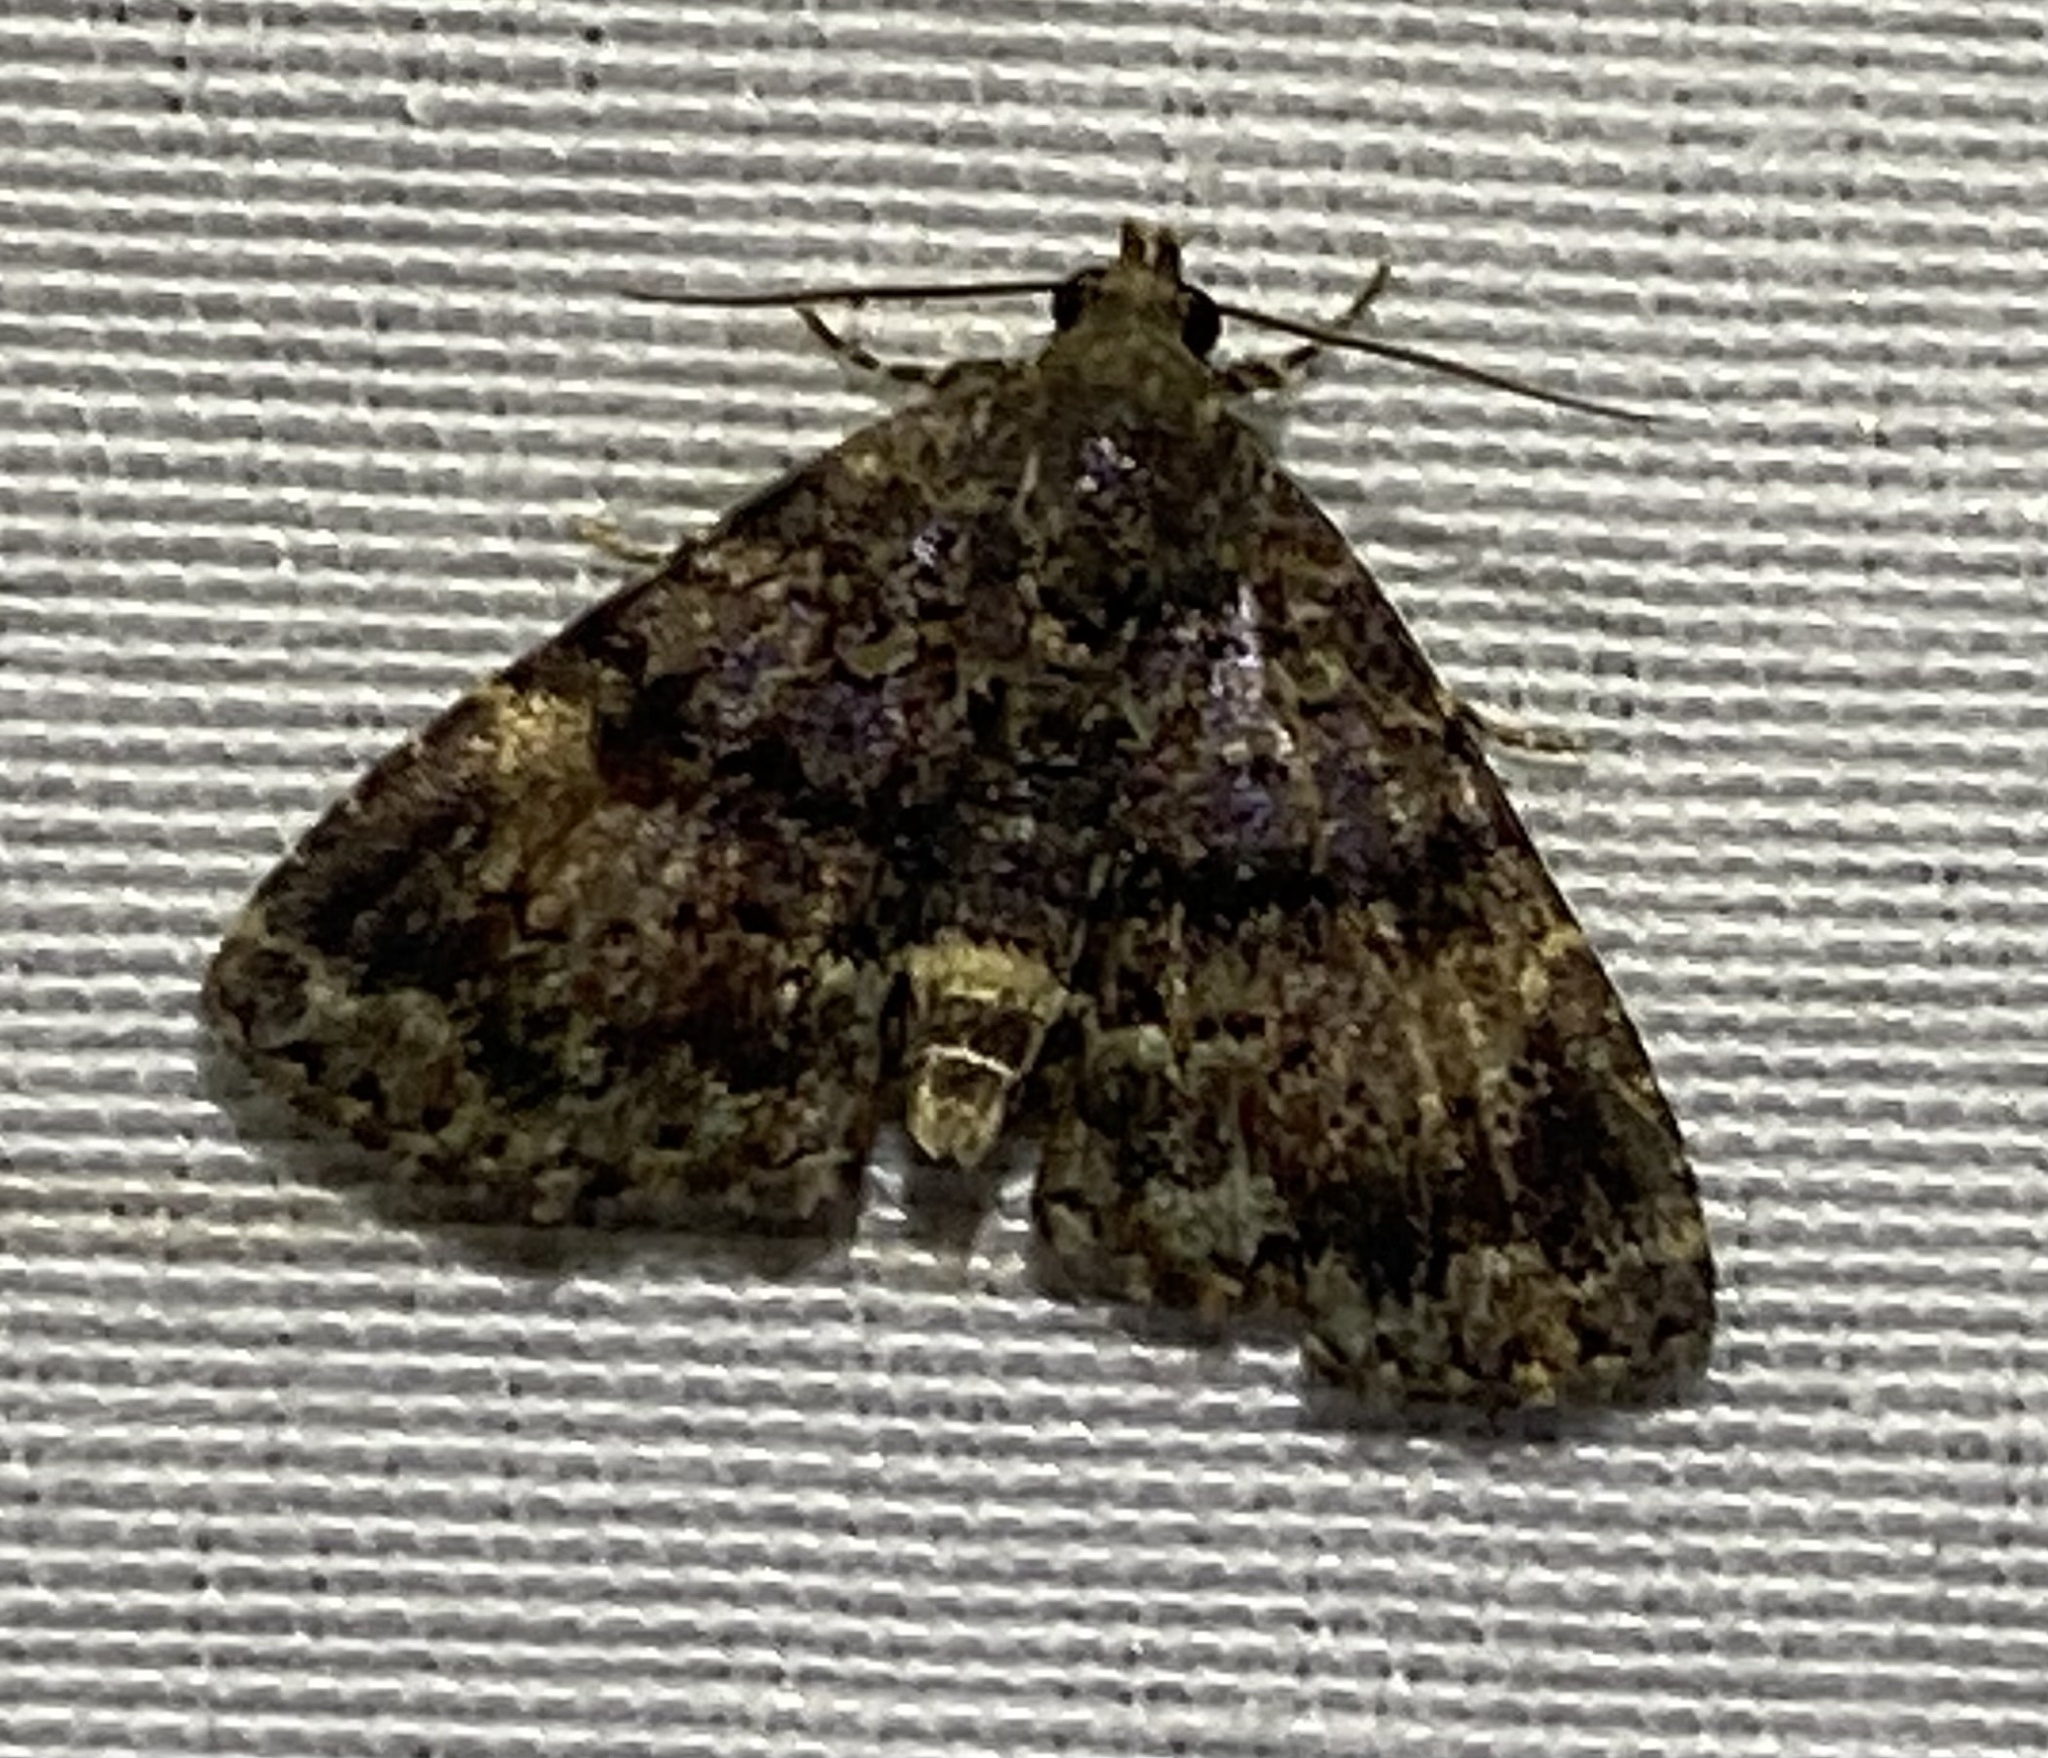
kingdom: Animalia
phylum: Arthropoda
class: Insecta
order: Lepidoptera
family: Erebidae
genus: Metalectra
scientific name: Metalectra richardsi
